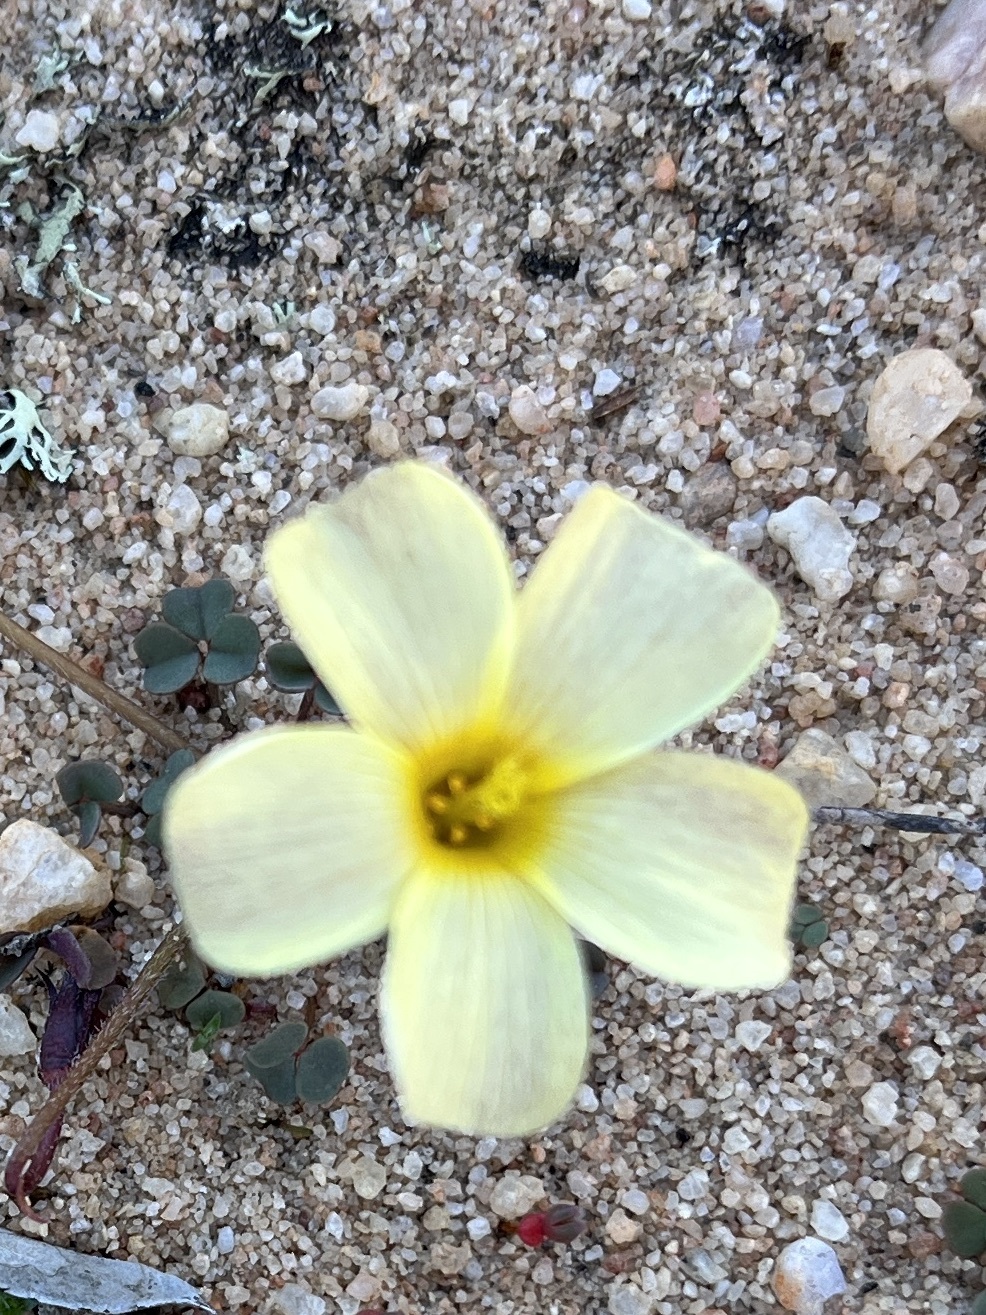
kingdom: Plantae
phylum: Tracheophyta
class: Magnoliopsida
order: Oxalidales
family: Oxalidaceae
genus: Oxalis
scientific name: Oxalis obtusa
